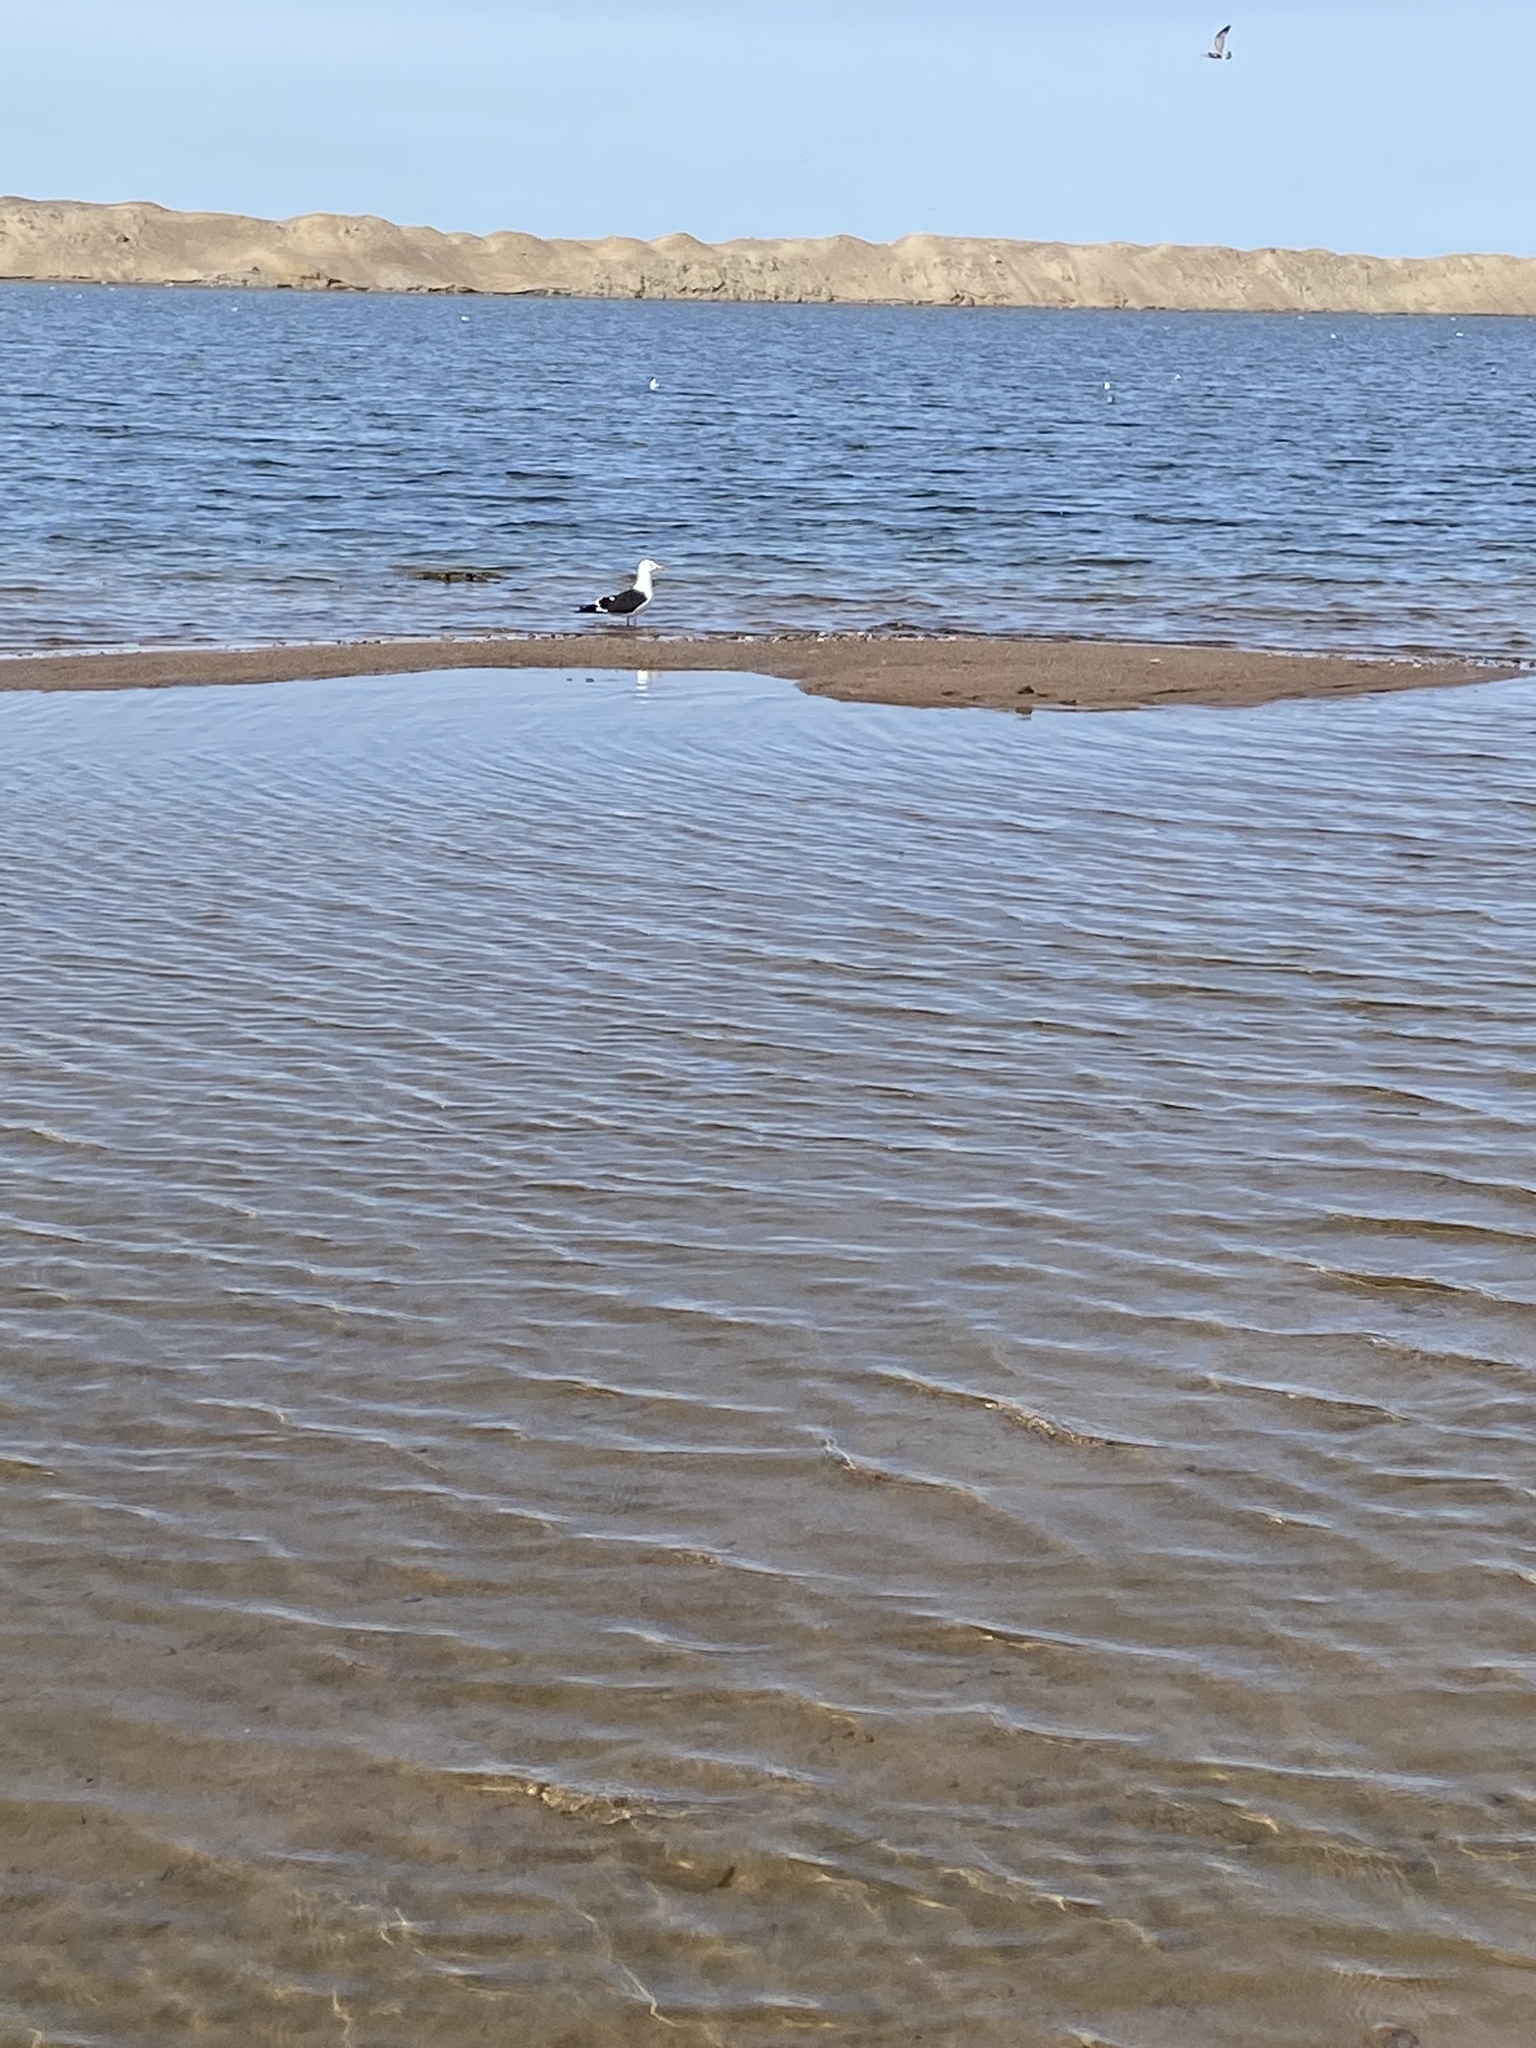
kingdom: Animalia
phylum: Chordata
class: Aves
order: Charadriiformes
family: Laridae
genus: Larus
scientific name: Larus fuscus
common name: Lesser black-backed gull
